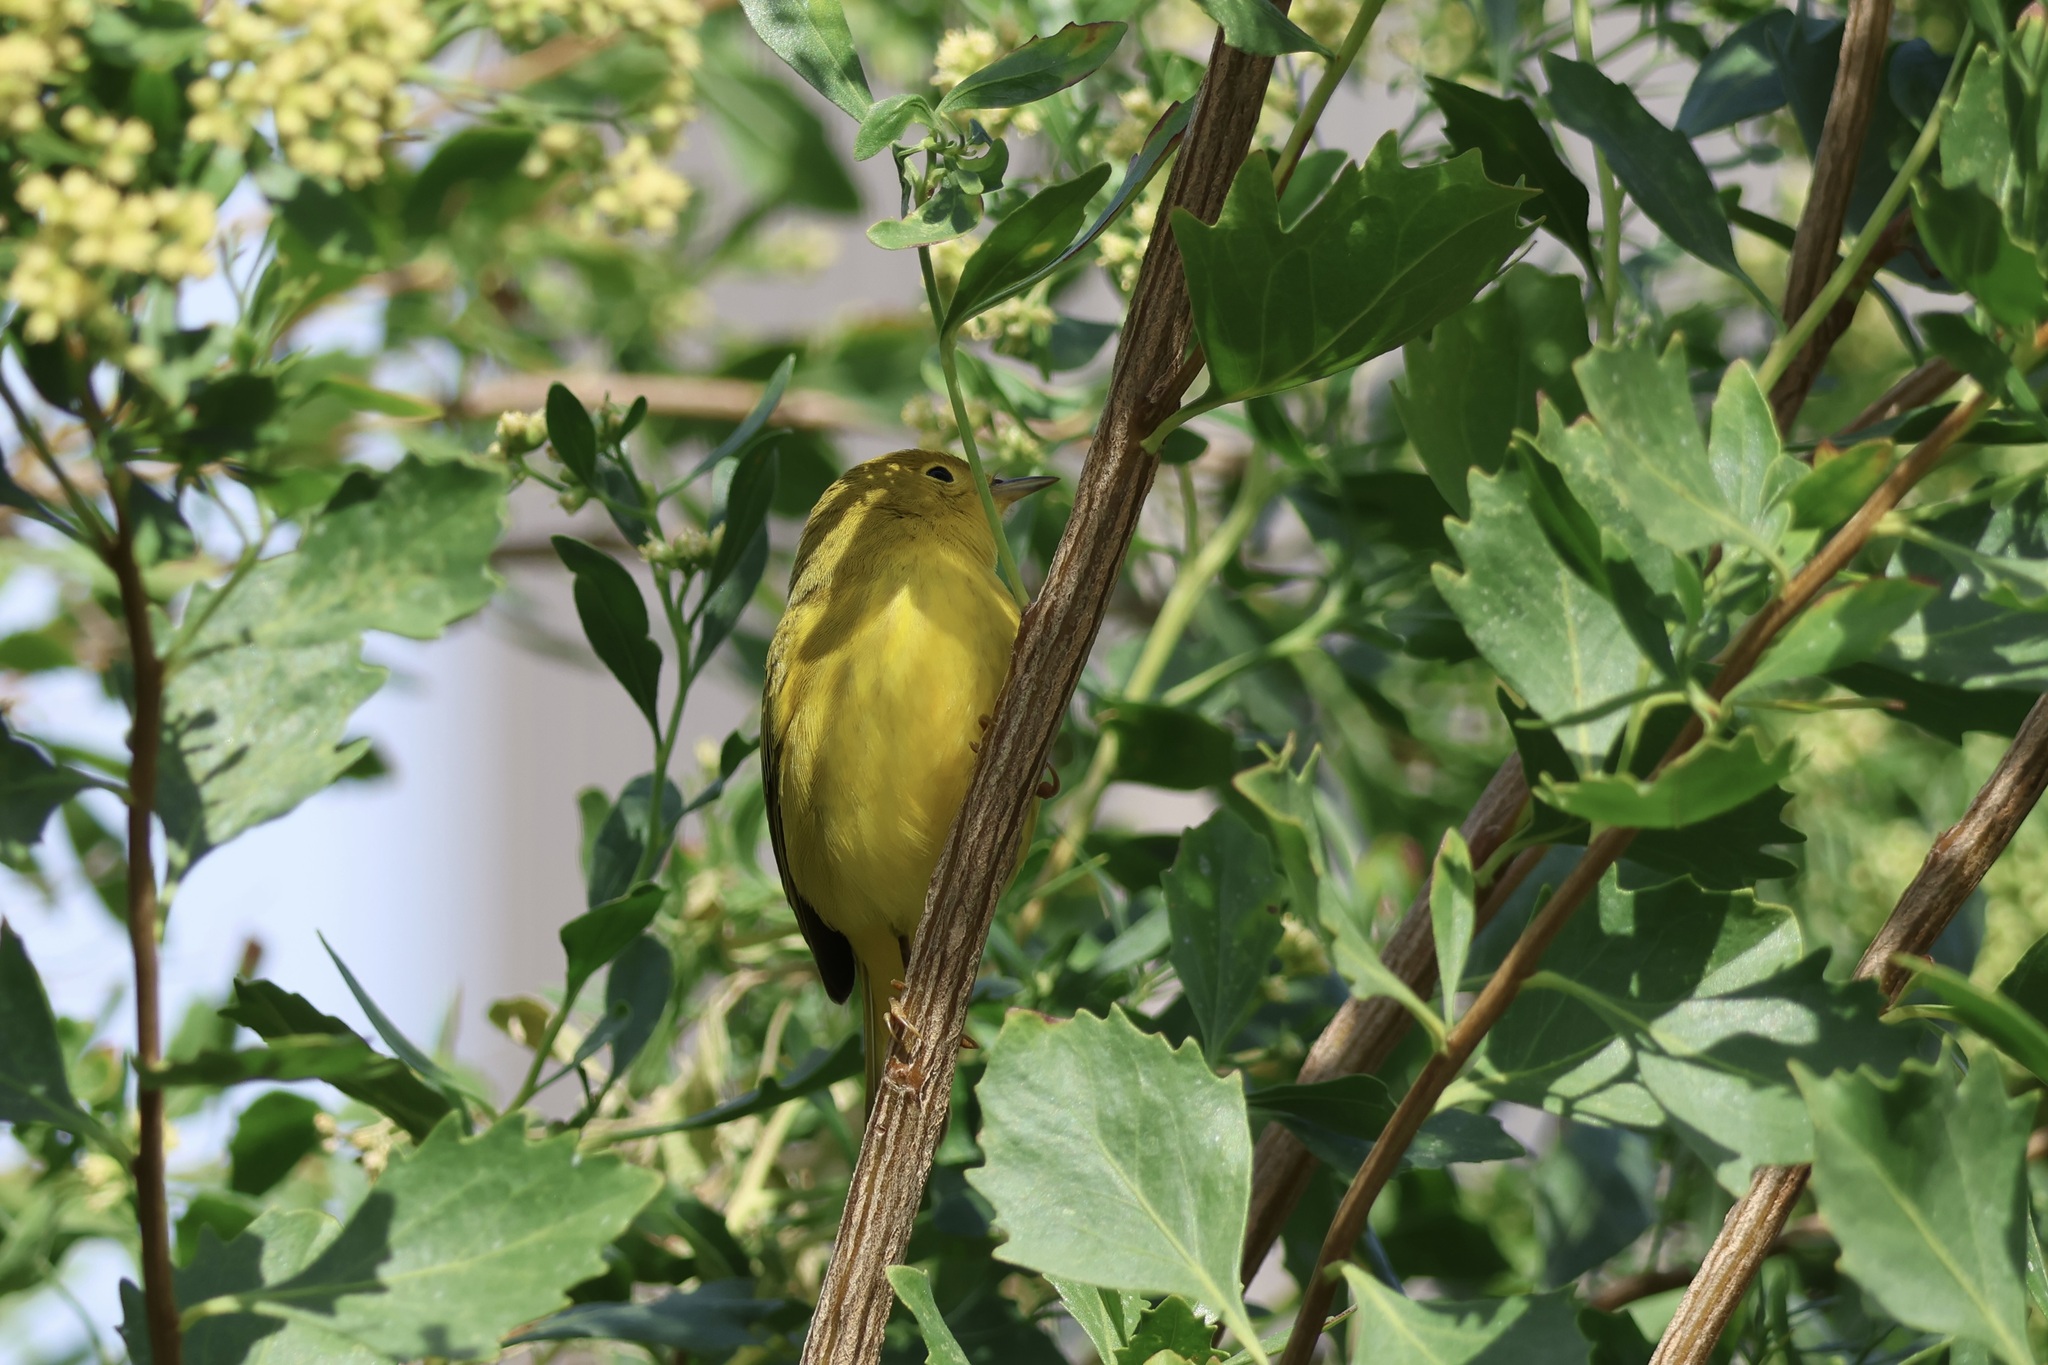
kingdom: Animalia
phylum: Chordata
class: Aves
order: Passeriformes
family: Parulidae
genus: Setophaga
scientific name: Setophaga petechia
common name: Yellow warbler
